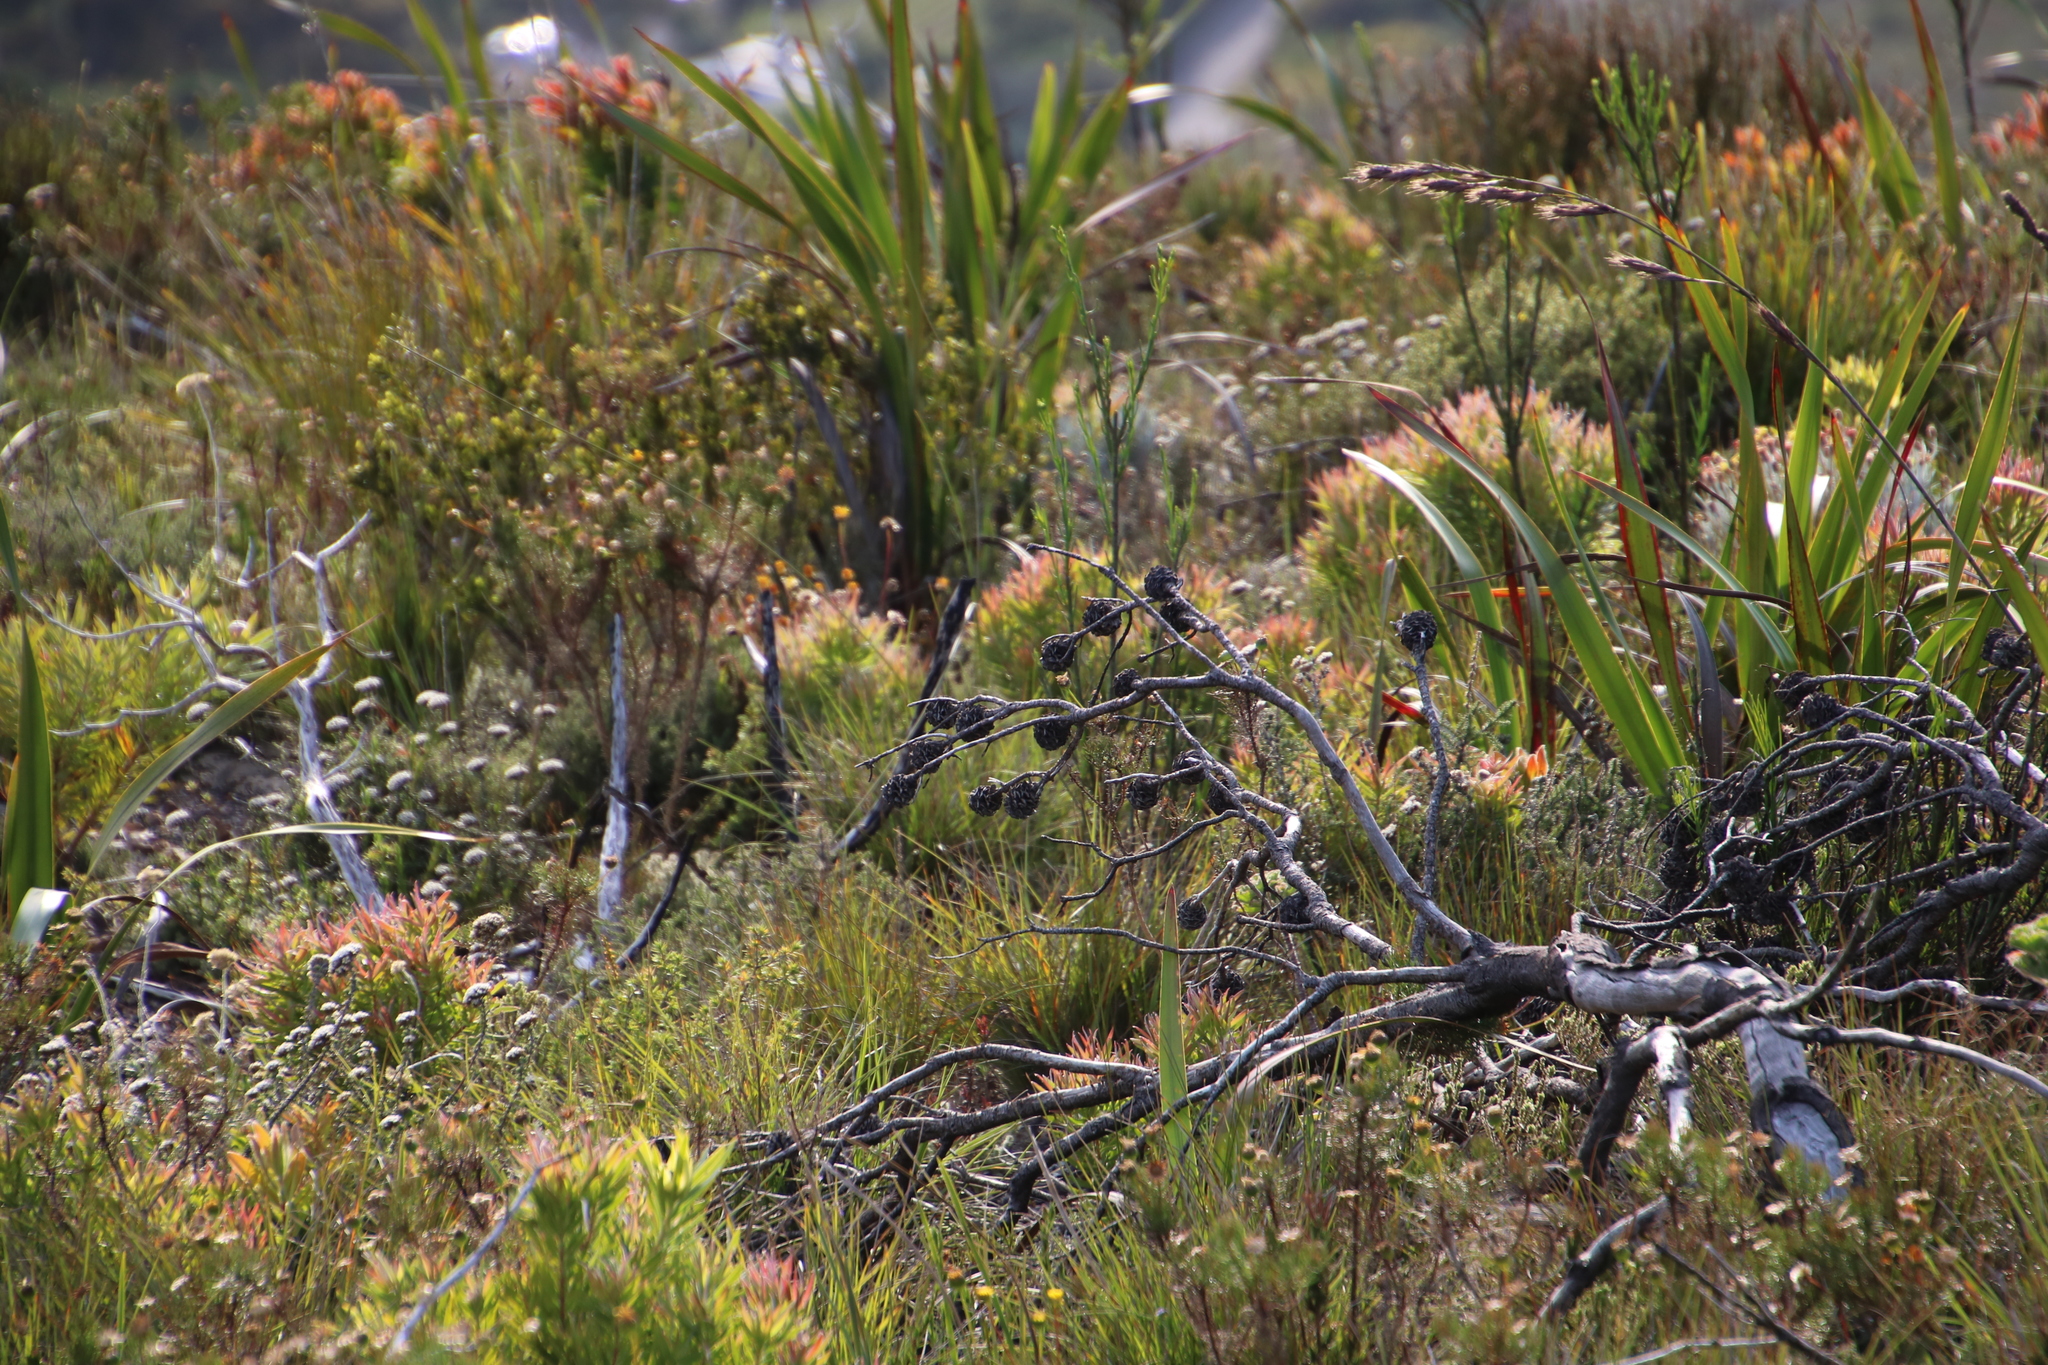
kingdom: Plantae
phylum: Tracheophyta
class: Magnoliopsida
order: Proteales
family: Proteaceae
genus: Leucadendron
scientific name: Leucadendron xanthoconus
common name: Sickle-leaf conebush
